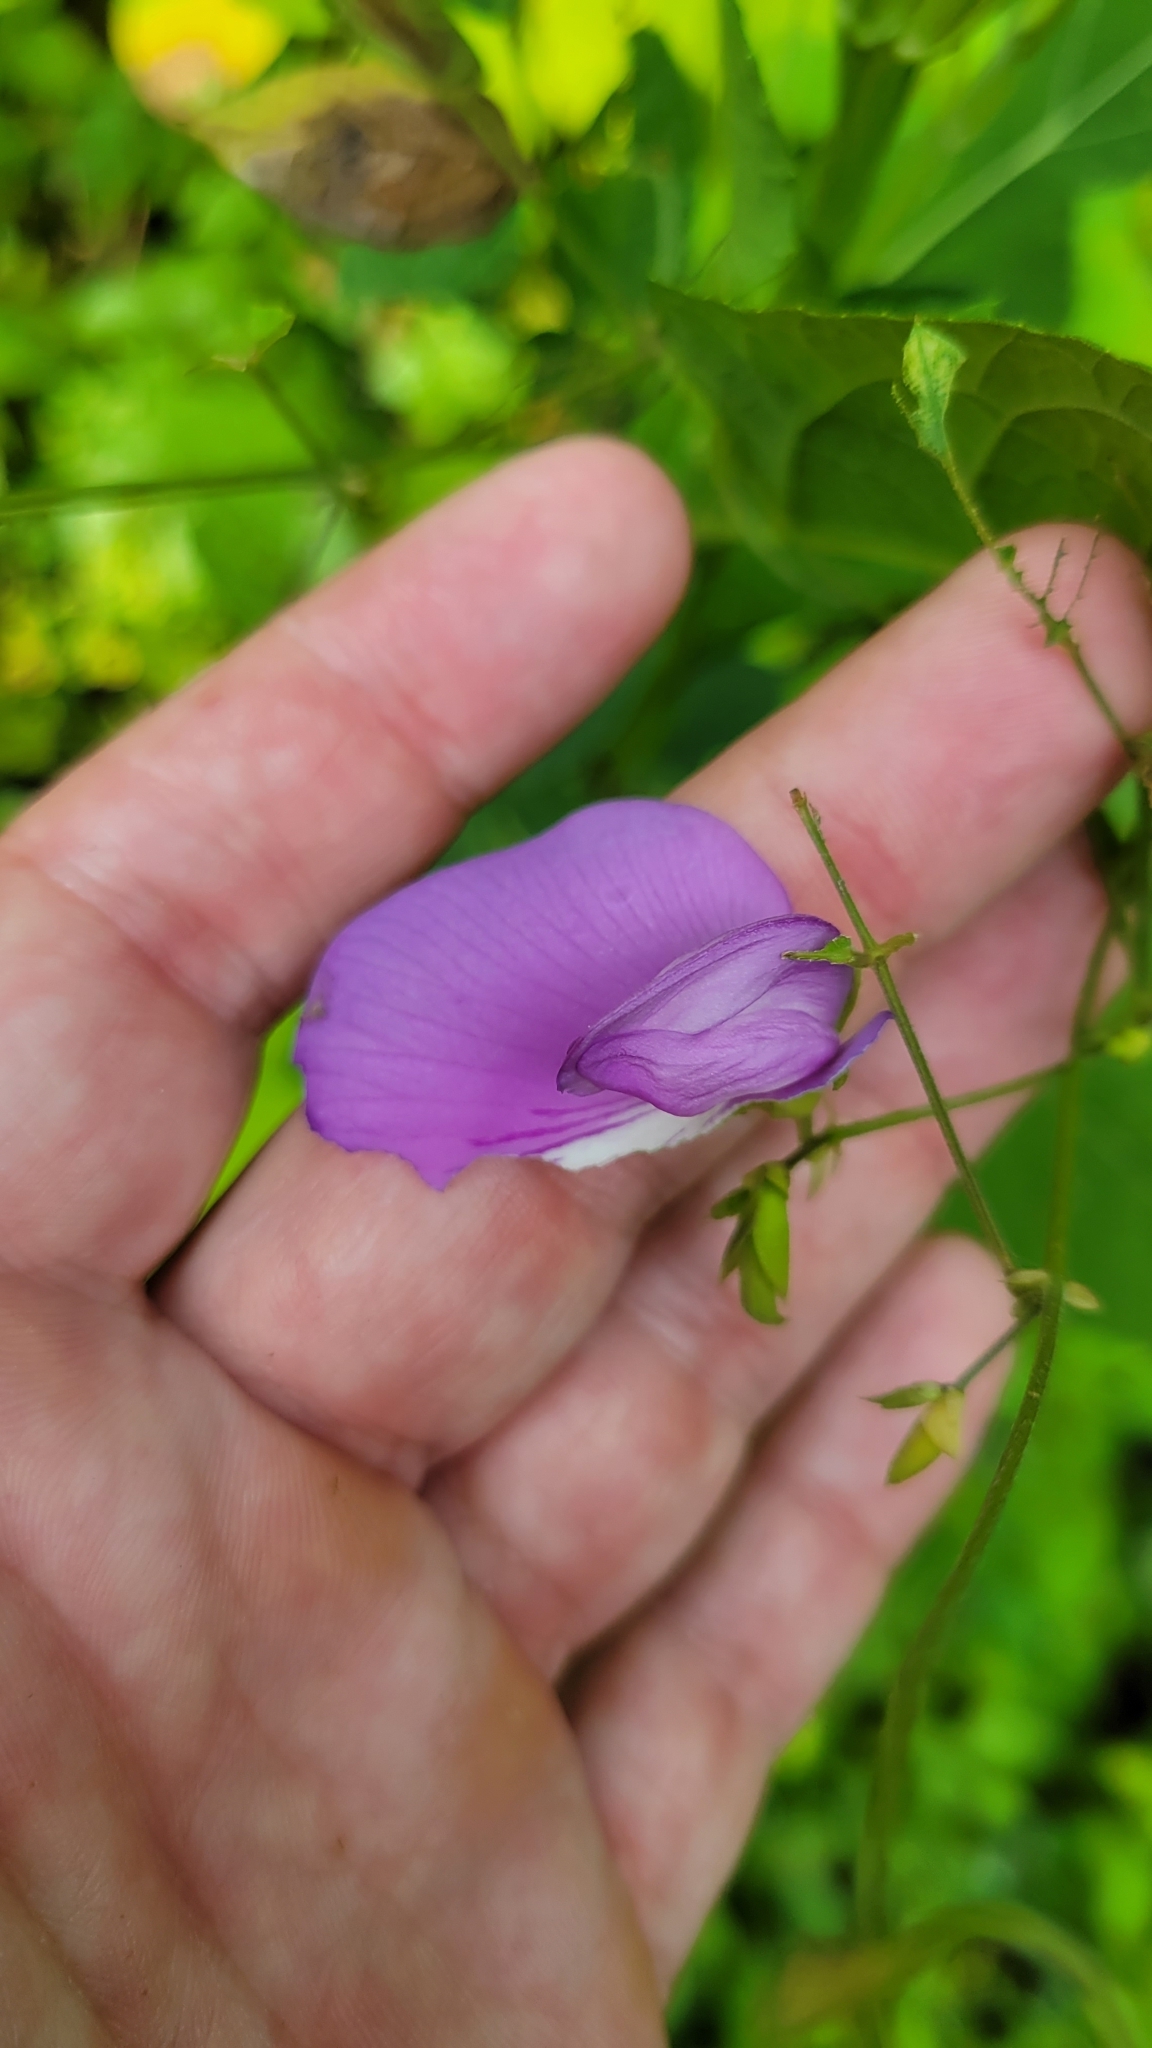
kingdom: Plantae
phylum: Tracheophyta
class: Magnoliopsida
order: Fabales
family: Fabaceae
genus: Centrosema
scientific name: Centrosema virginianum
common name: Butterfly-pea
